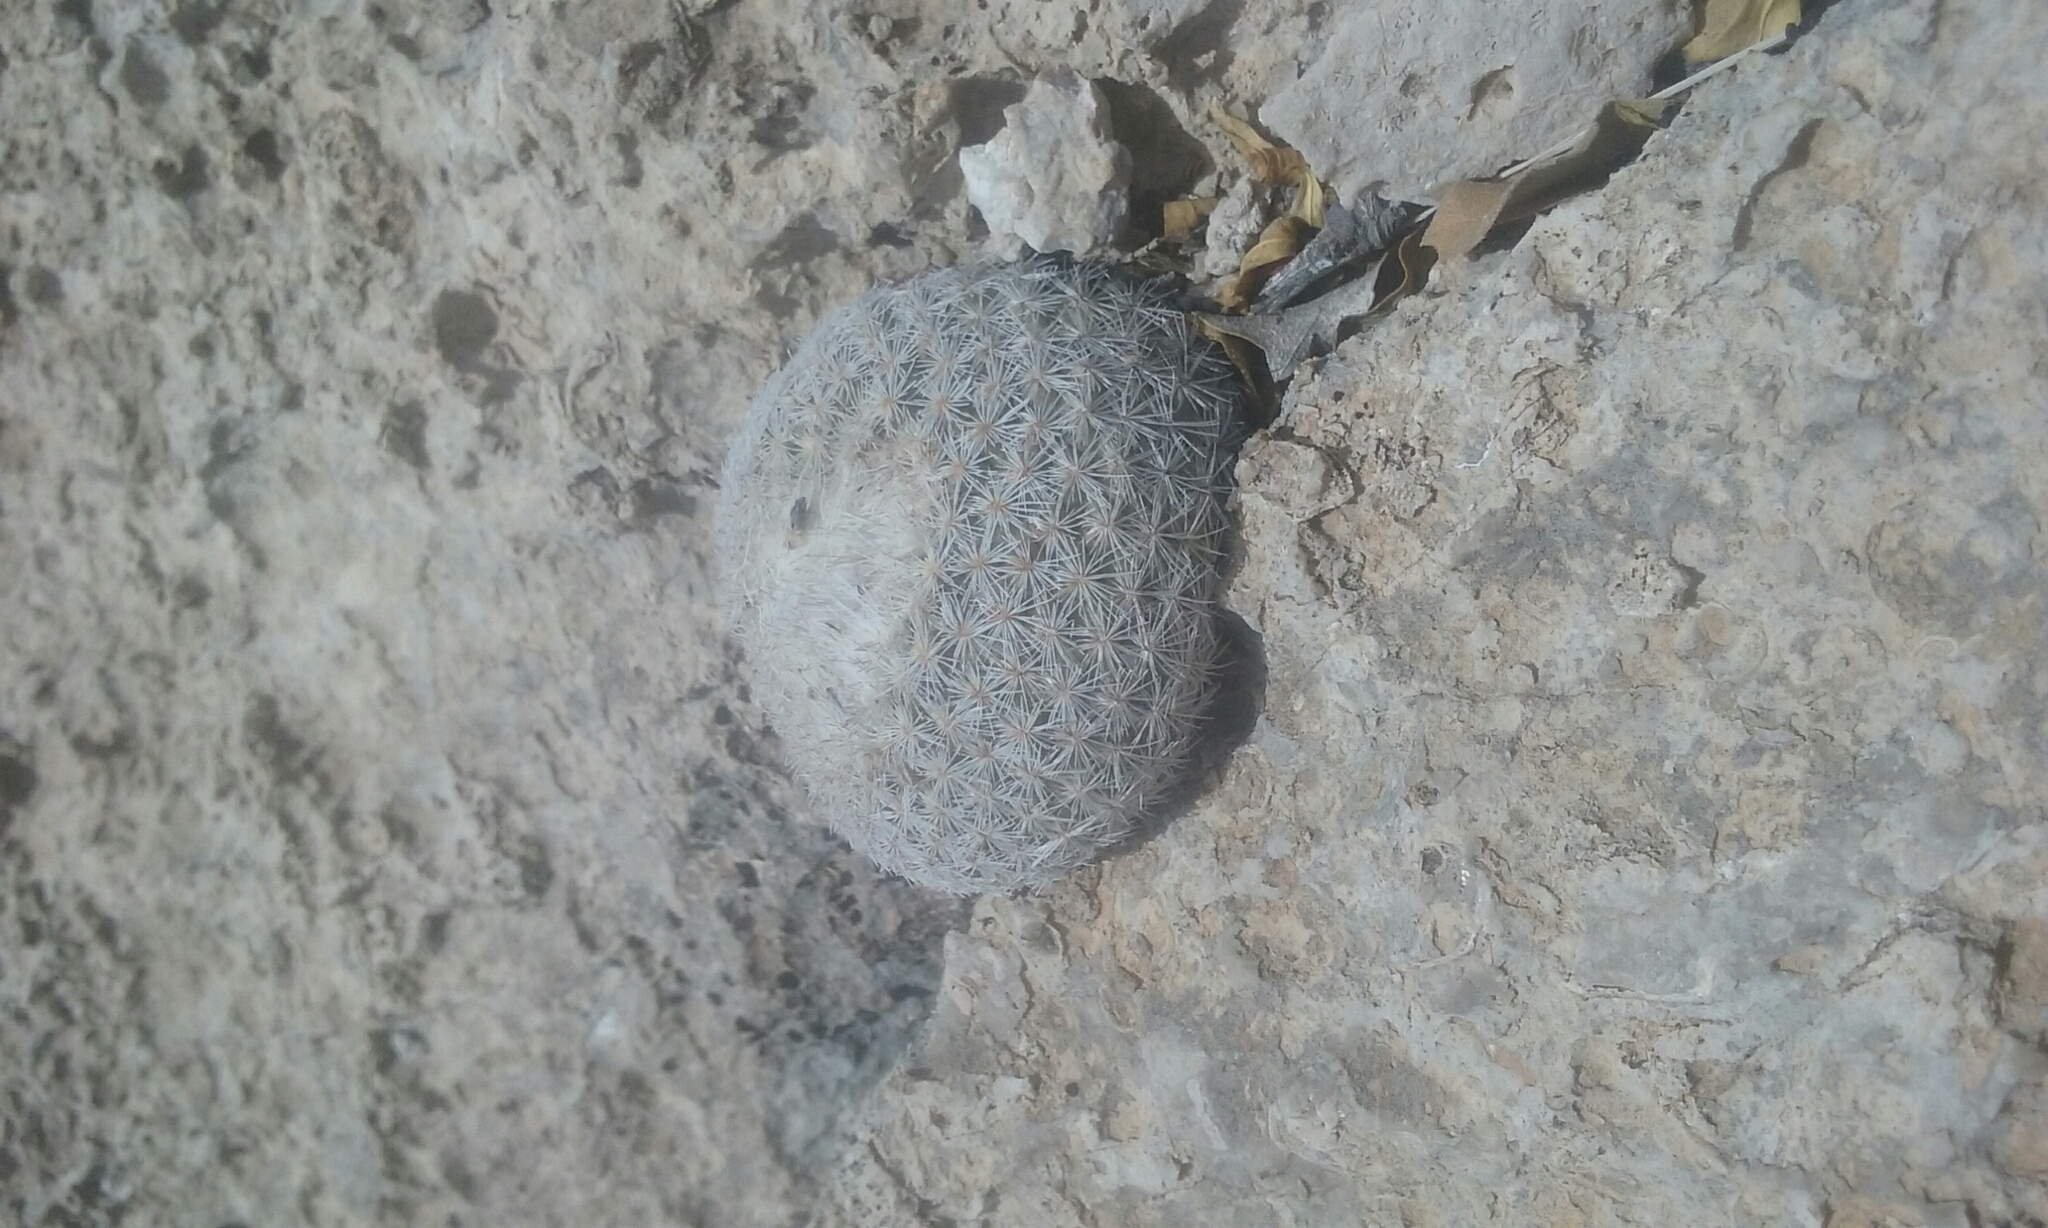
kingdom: Plantae
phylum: Tracheophyta
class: Magnoliopsida
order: Caryophyllales
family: Cactaceae
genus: Epithelantha
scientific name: Epithelantha micromeris
